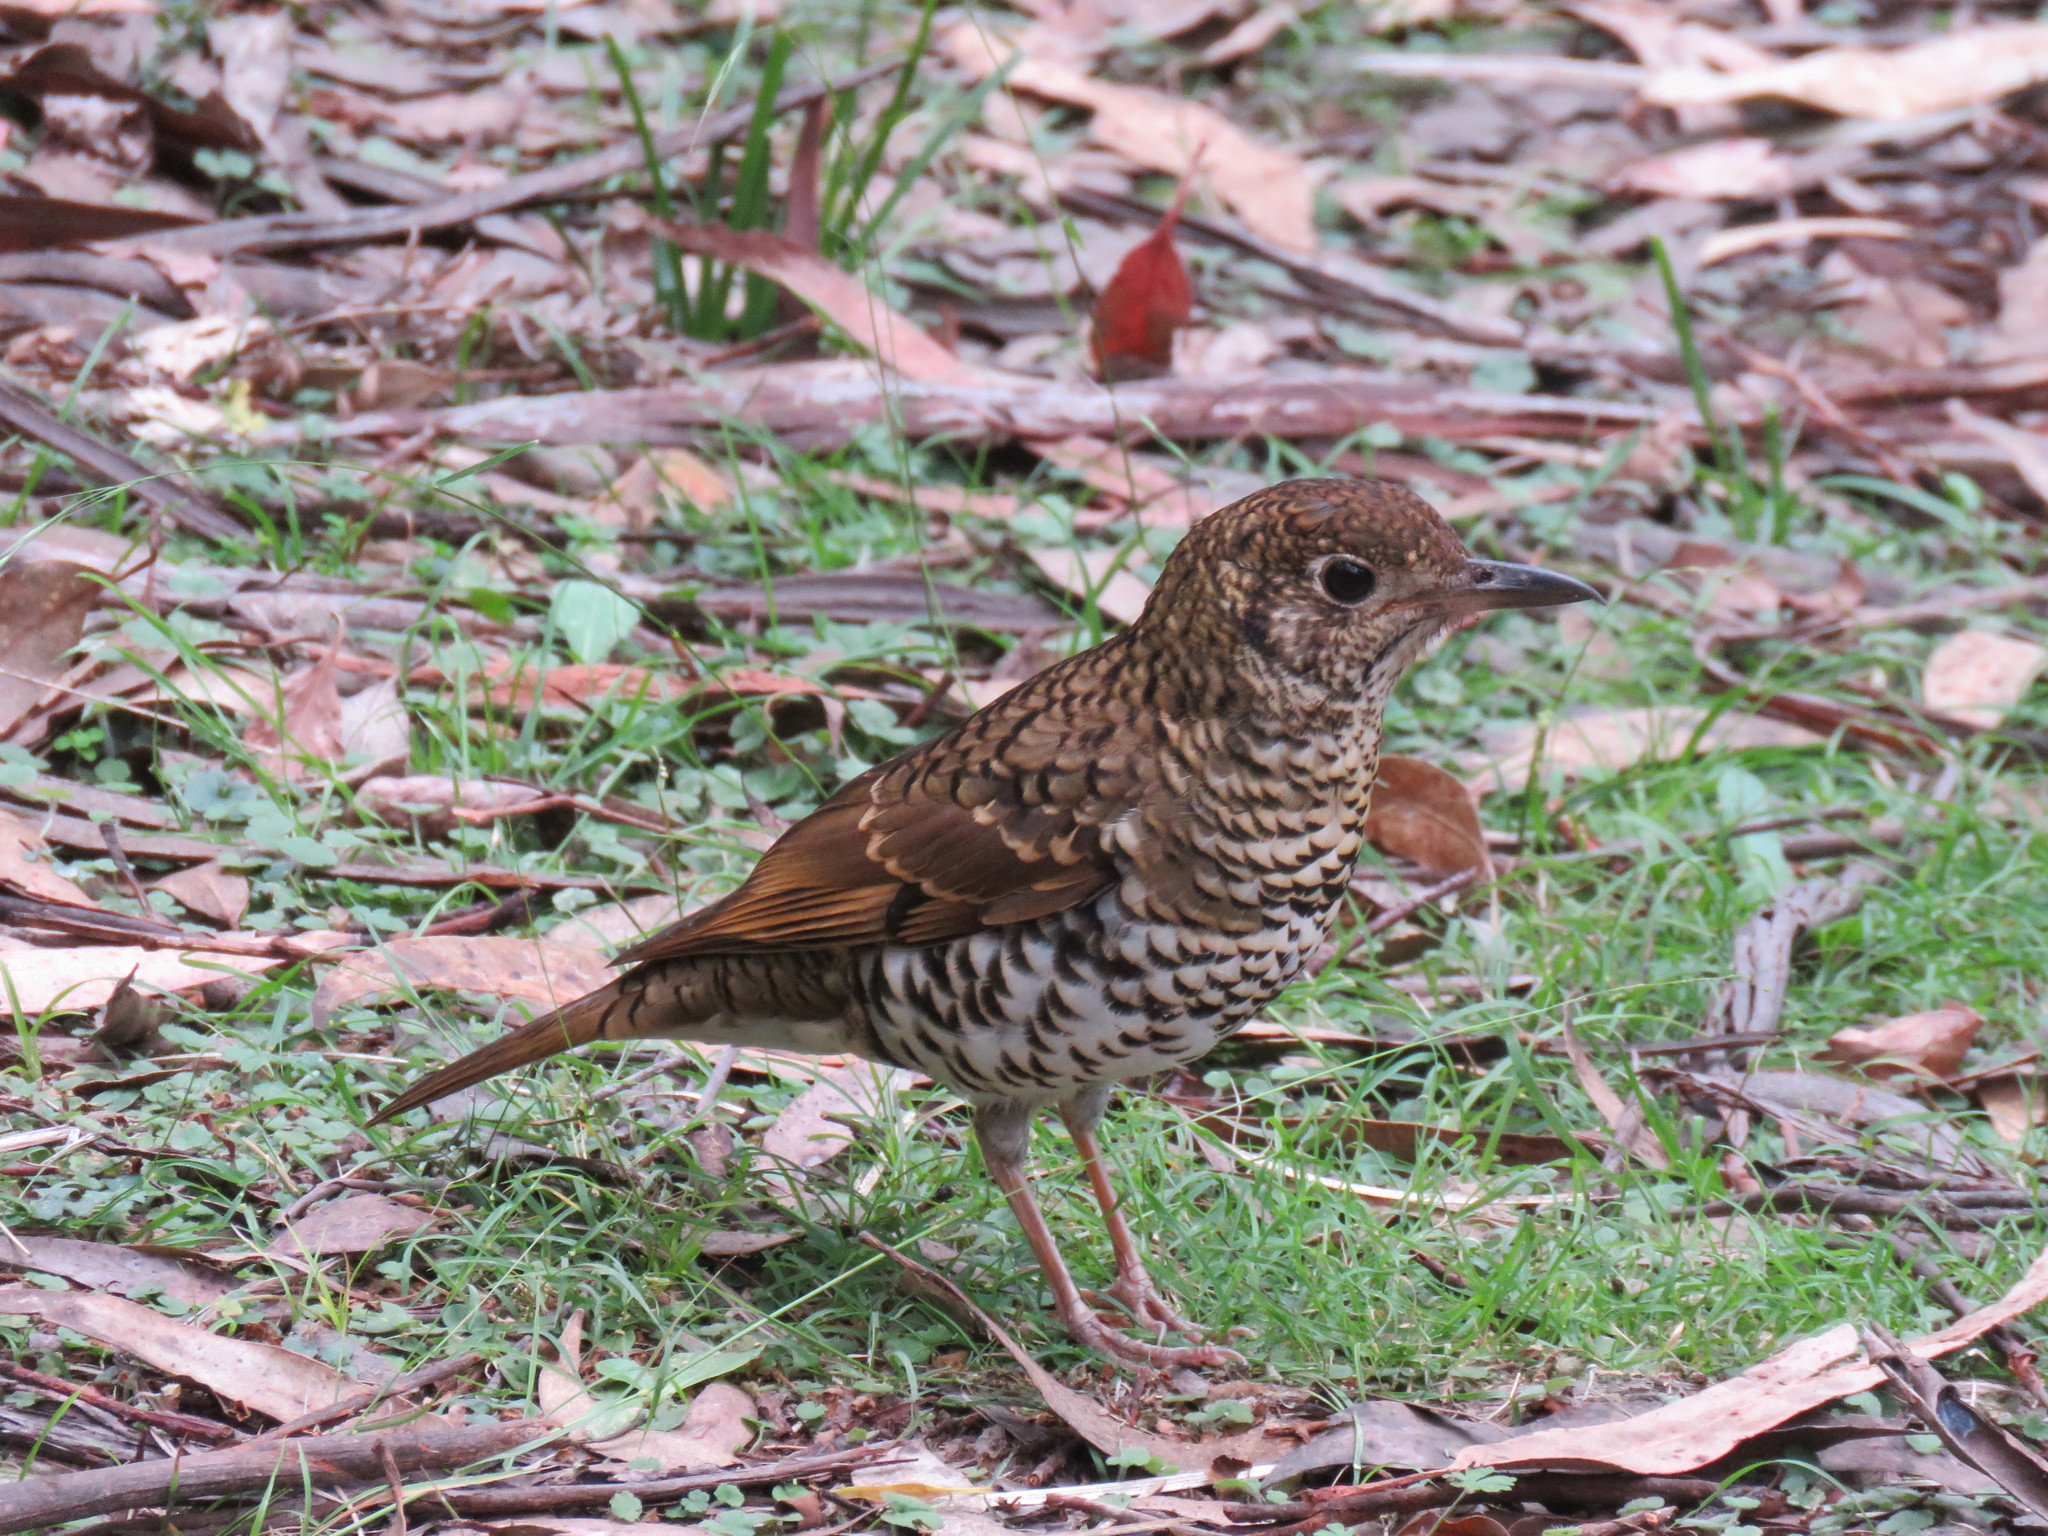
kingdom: Animalia
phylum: Chordata
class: Aves
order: Passeriformes
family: Turdidae
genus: Zoothera
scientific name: Zoothera lunulata
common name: Bassian thrush
